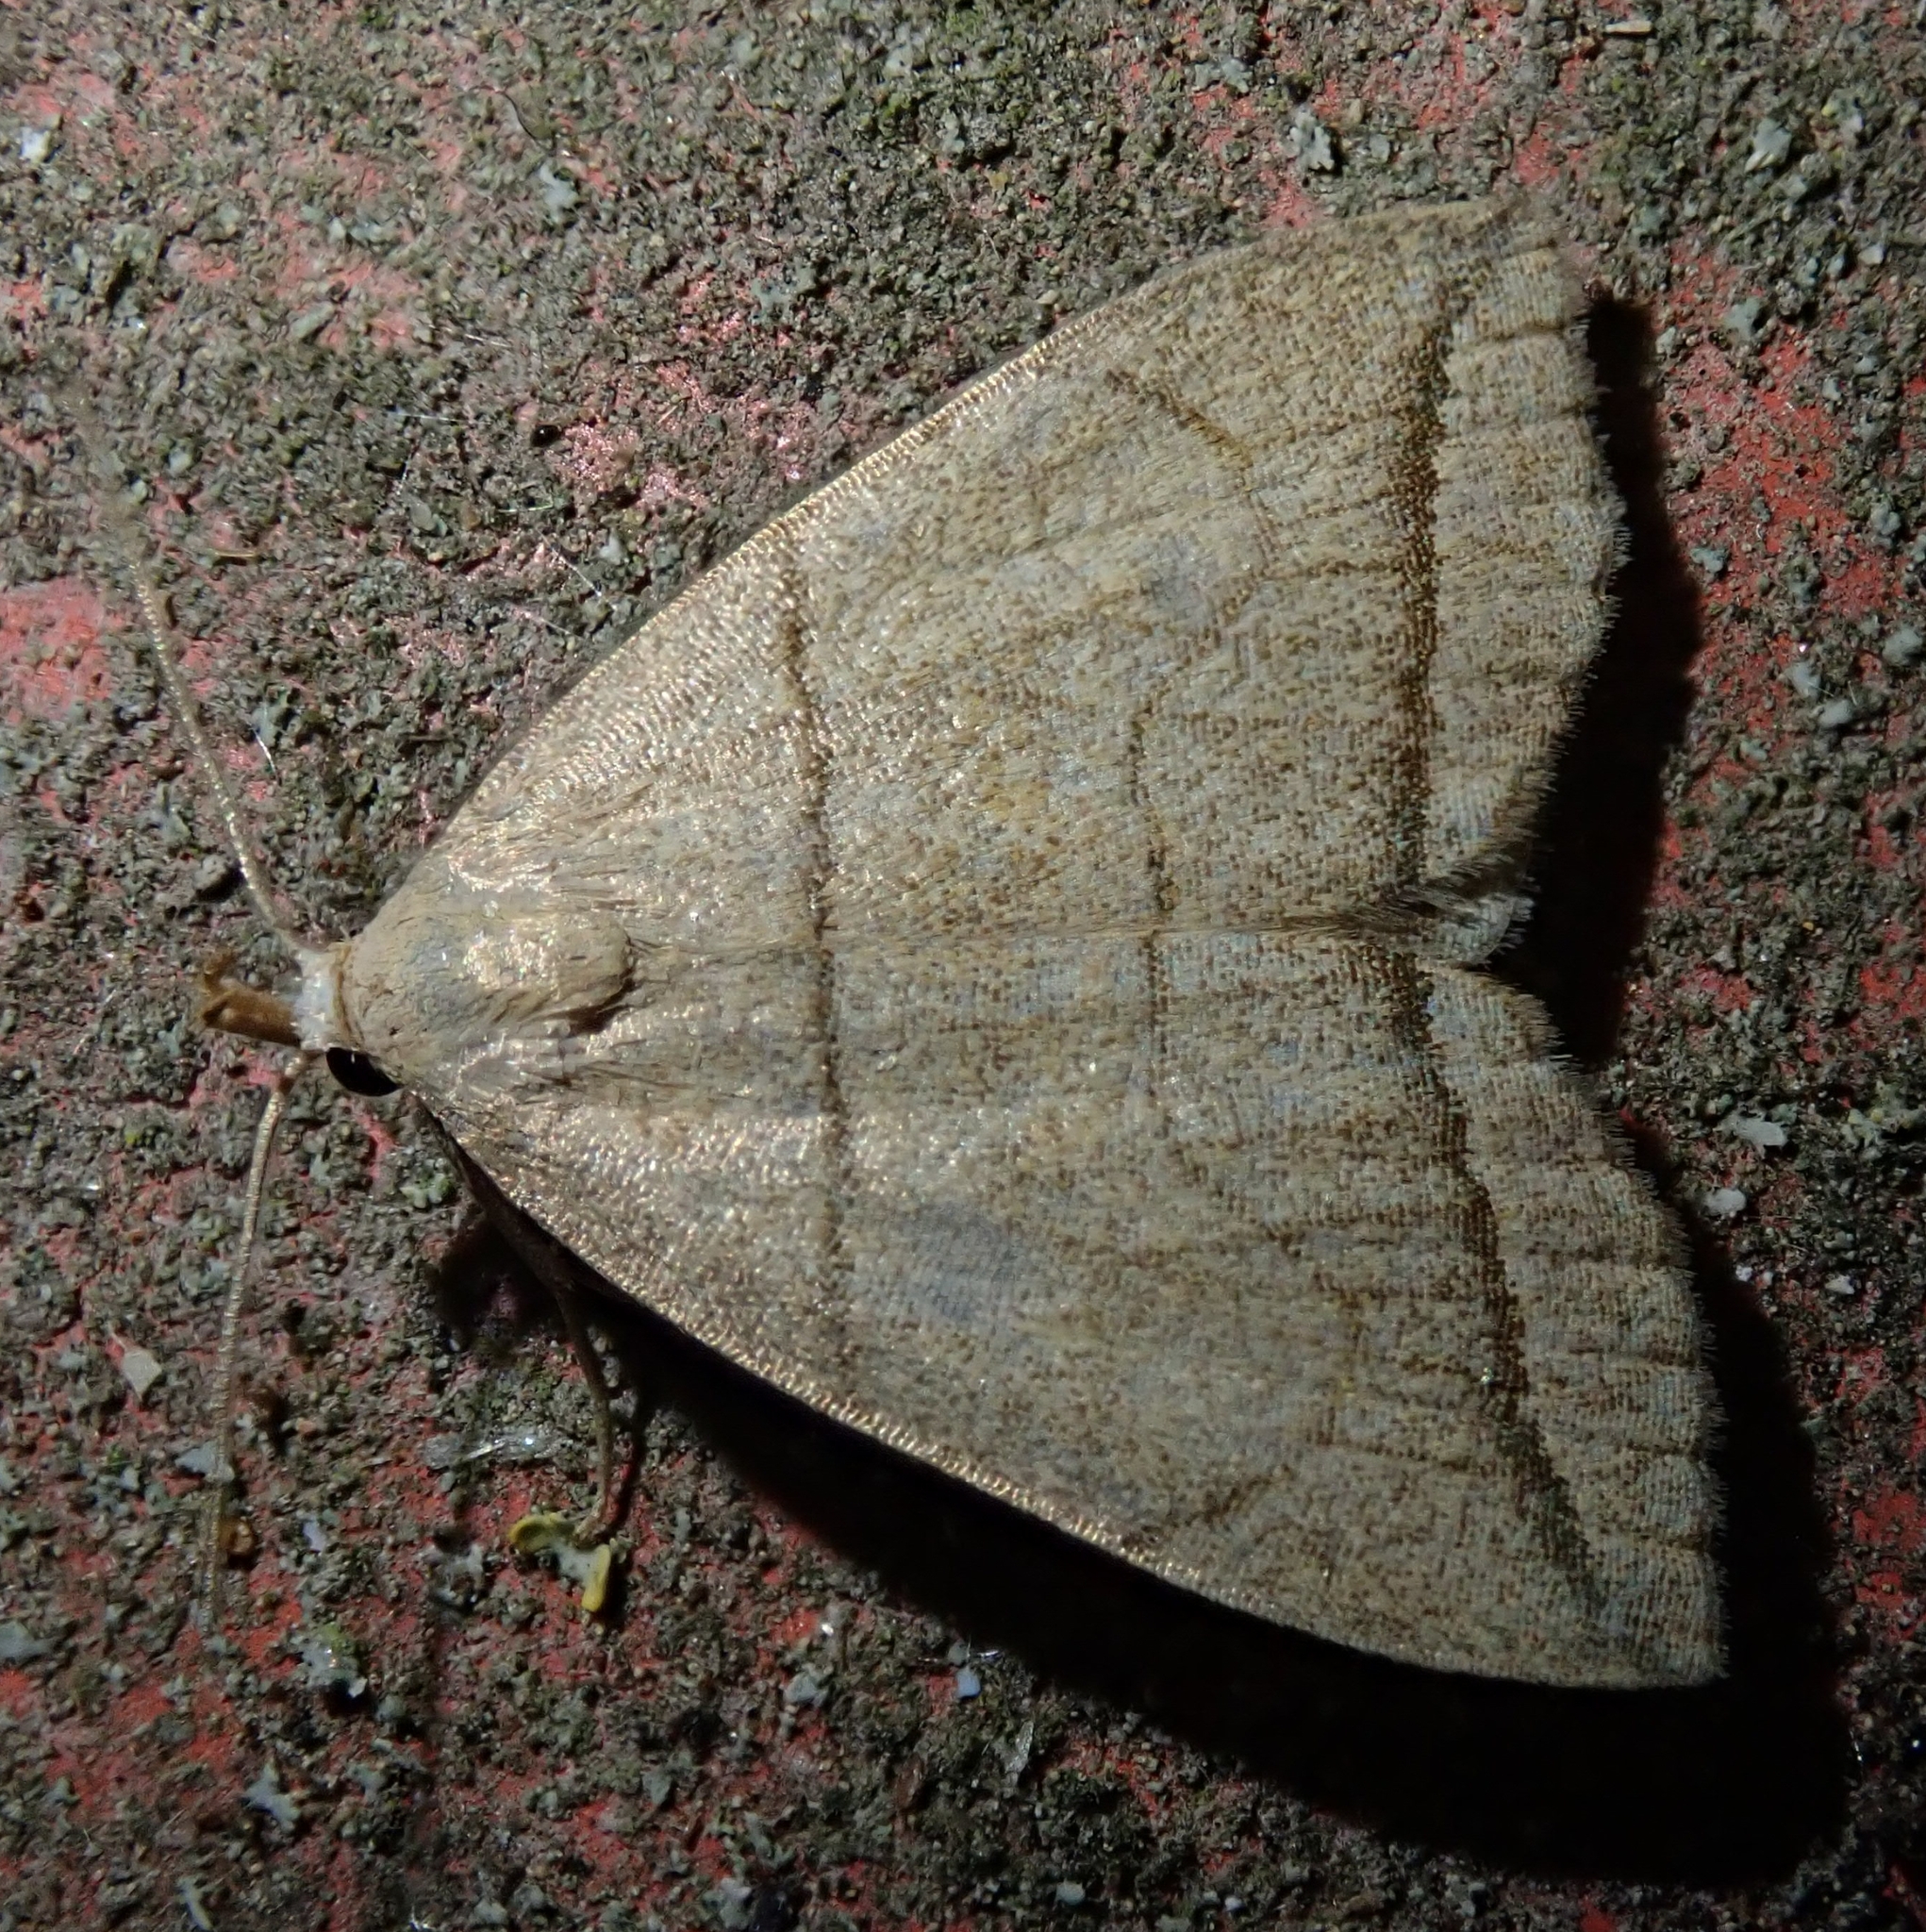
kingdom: Animalia
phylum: Arthropoda
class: Insecta
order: Lepidoptera
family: Erebidae
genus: Herminia
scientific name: Herminia grisealis
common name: Small fan-foot
